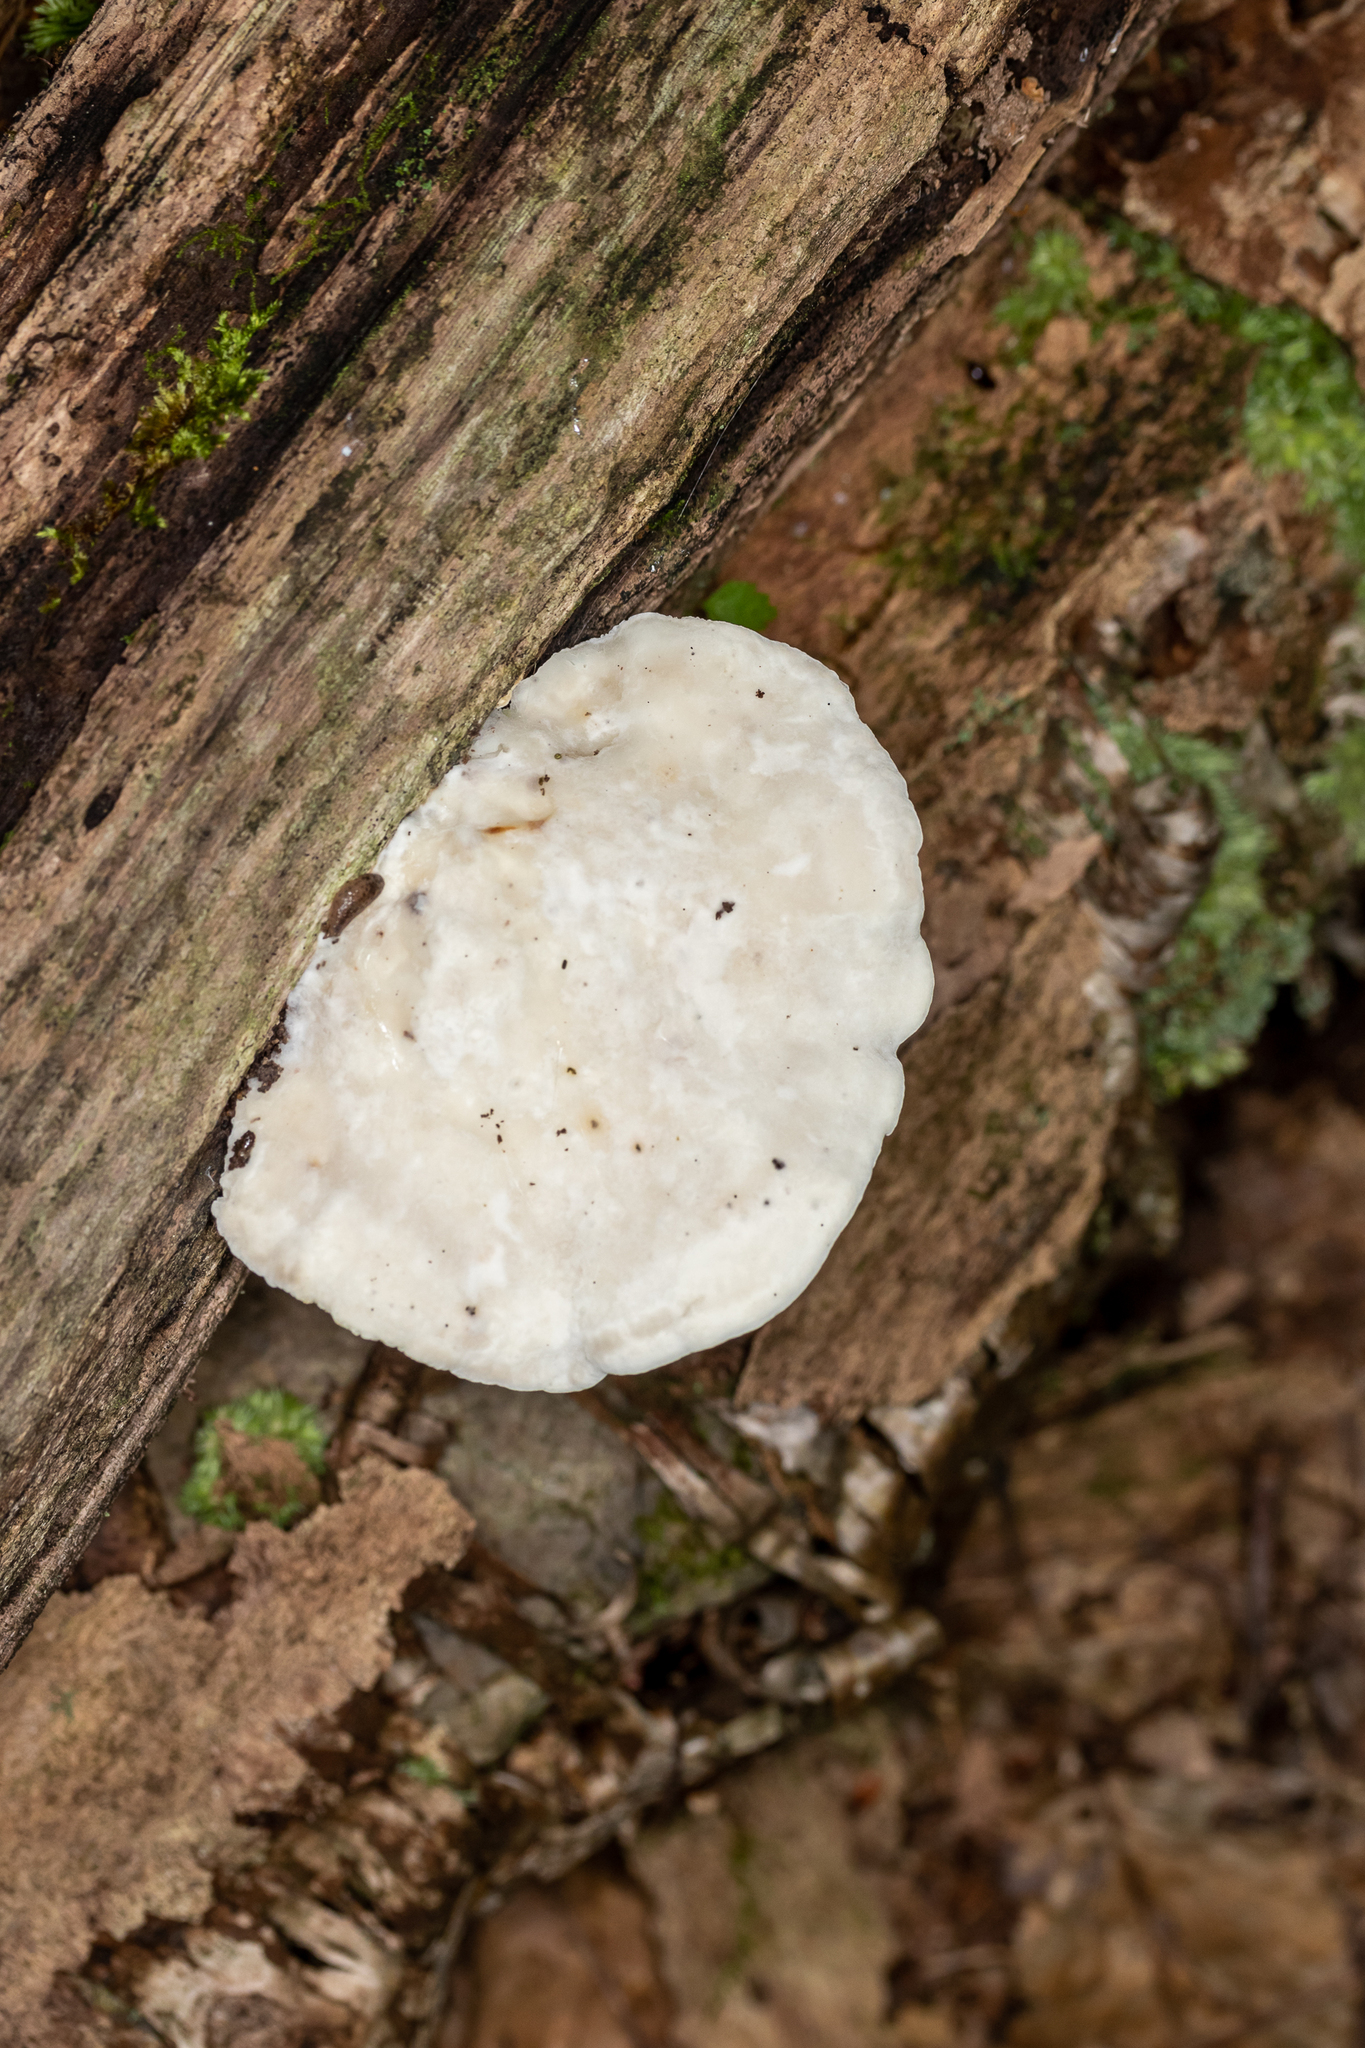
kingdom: Fungi
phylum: Basidiomycota
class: Agaricomycetes
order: Polyporales
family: Incrustoporiaceae
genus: Tyromyces
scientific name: Tyromyces chioneus
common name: White cheese polypore
